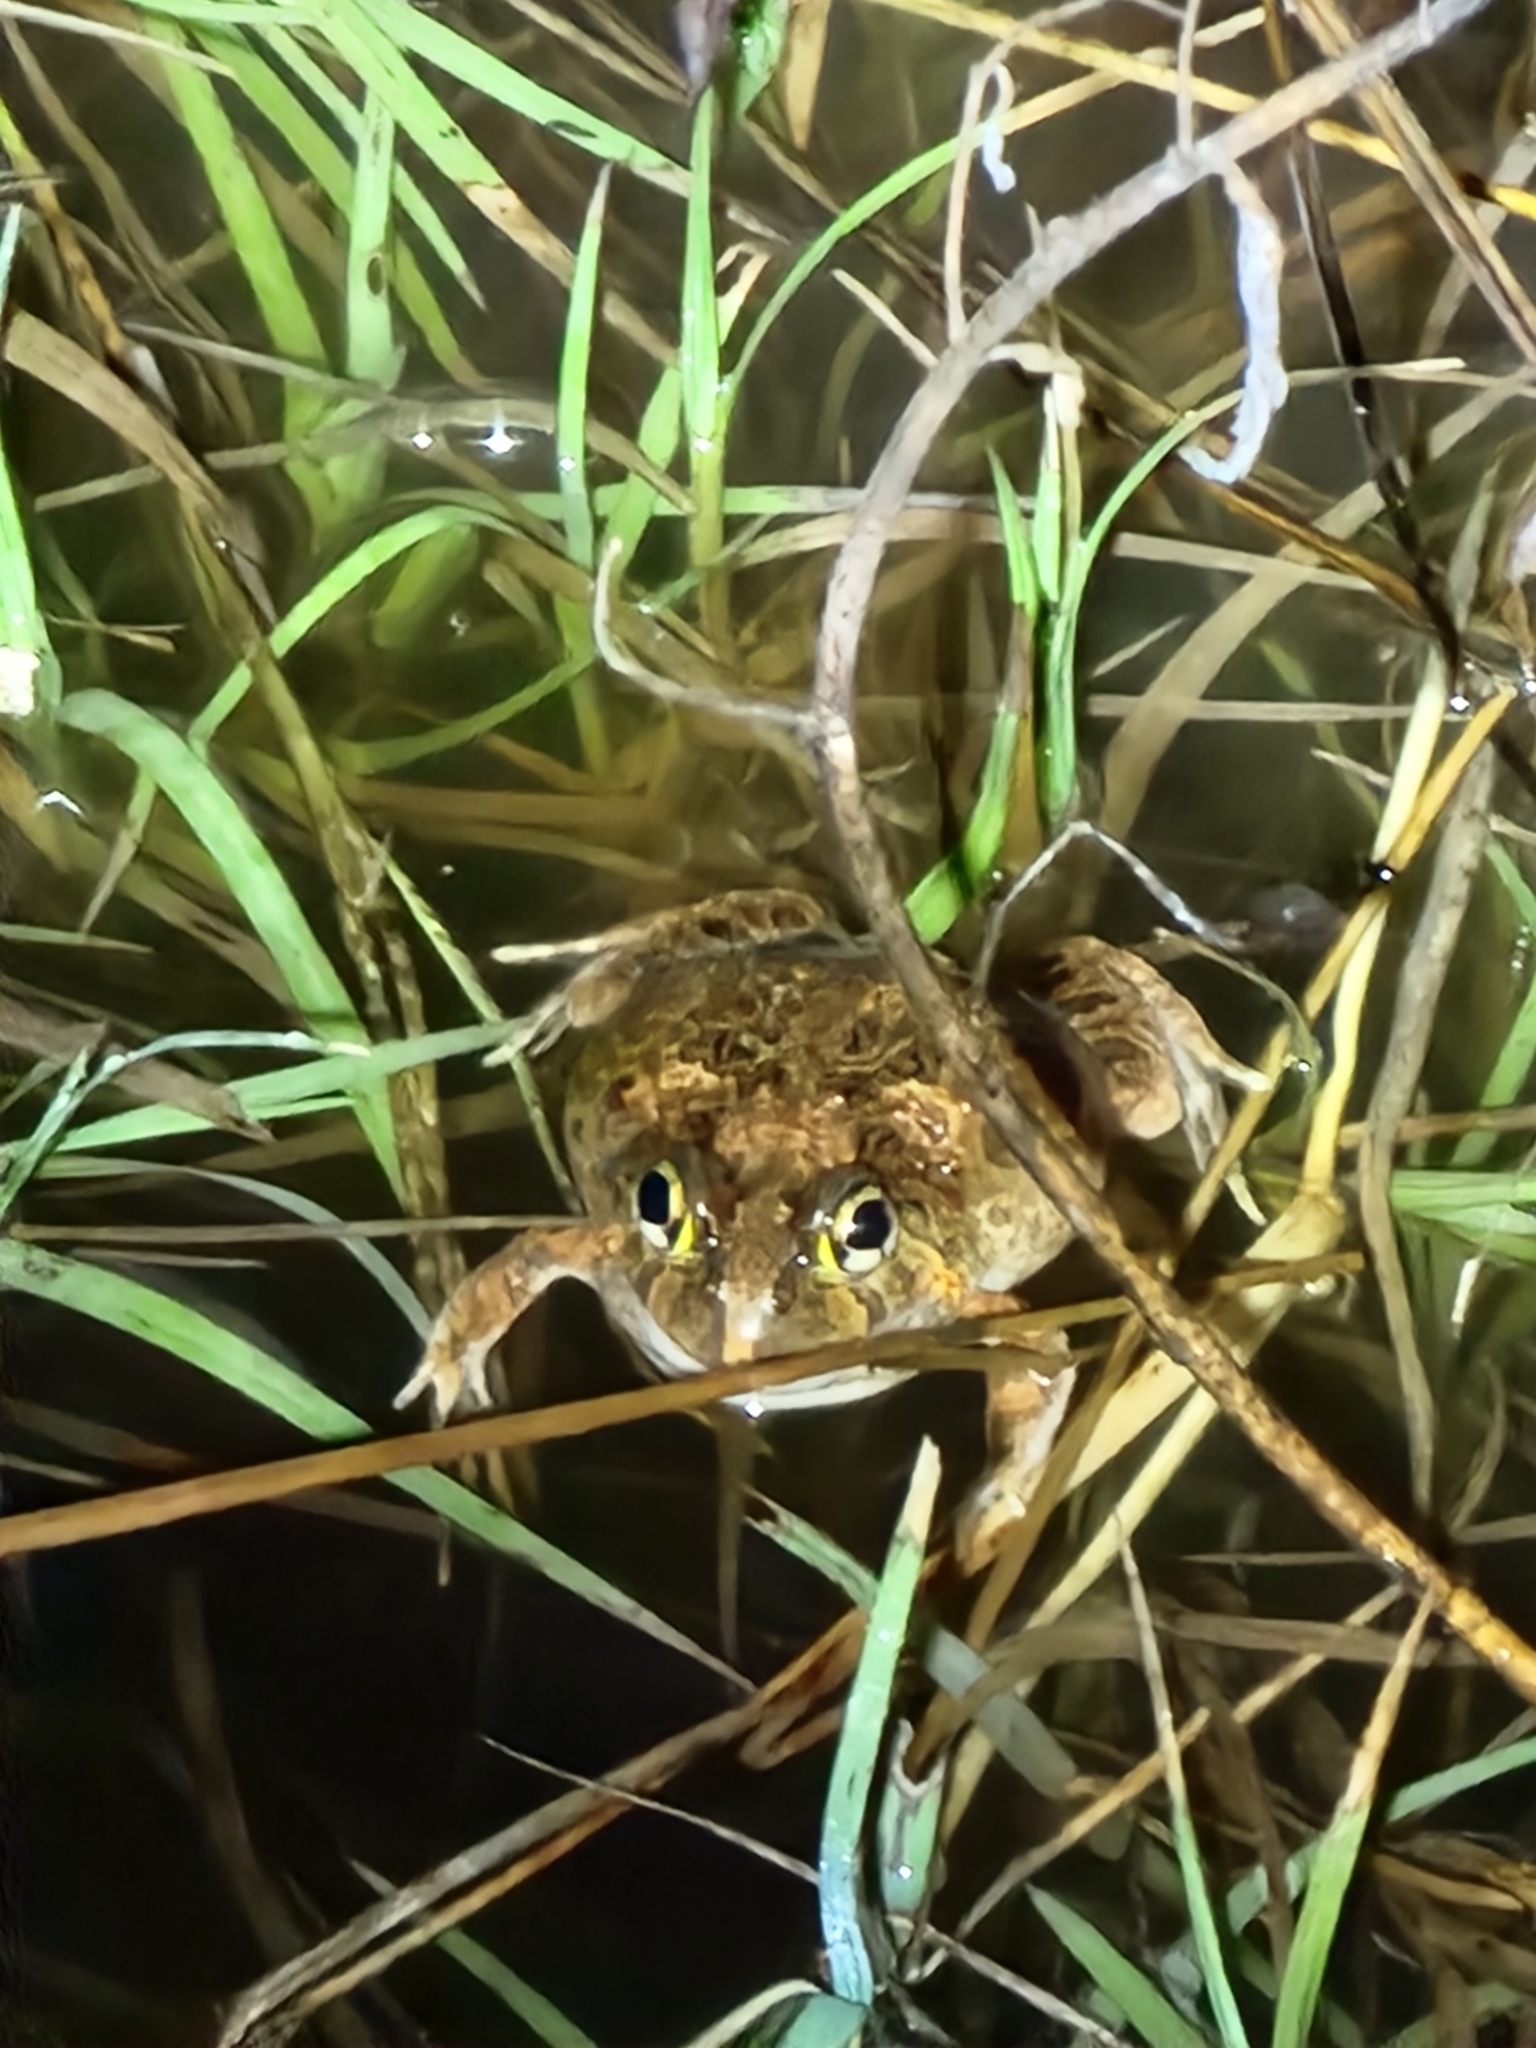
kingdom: Animalia
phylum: Chordata
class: Amphibia
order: Anura
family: Limnodynastidae
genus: Platyplectrum
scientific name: Platyplectrum ornatum
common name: Ornate burrowing frog
